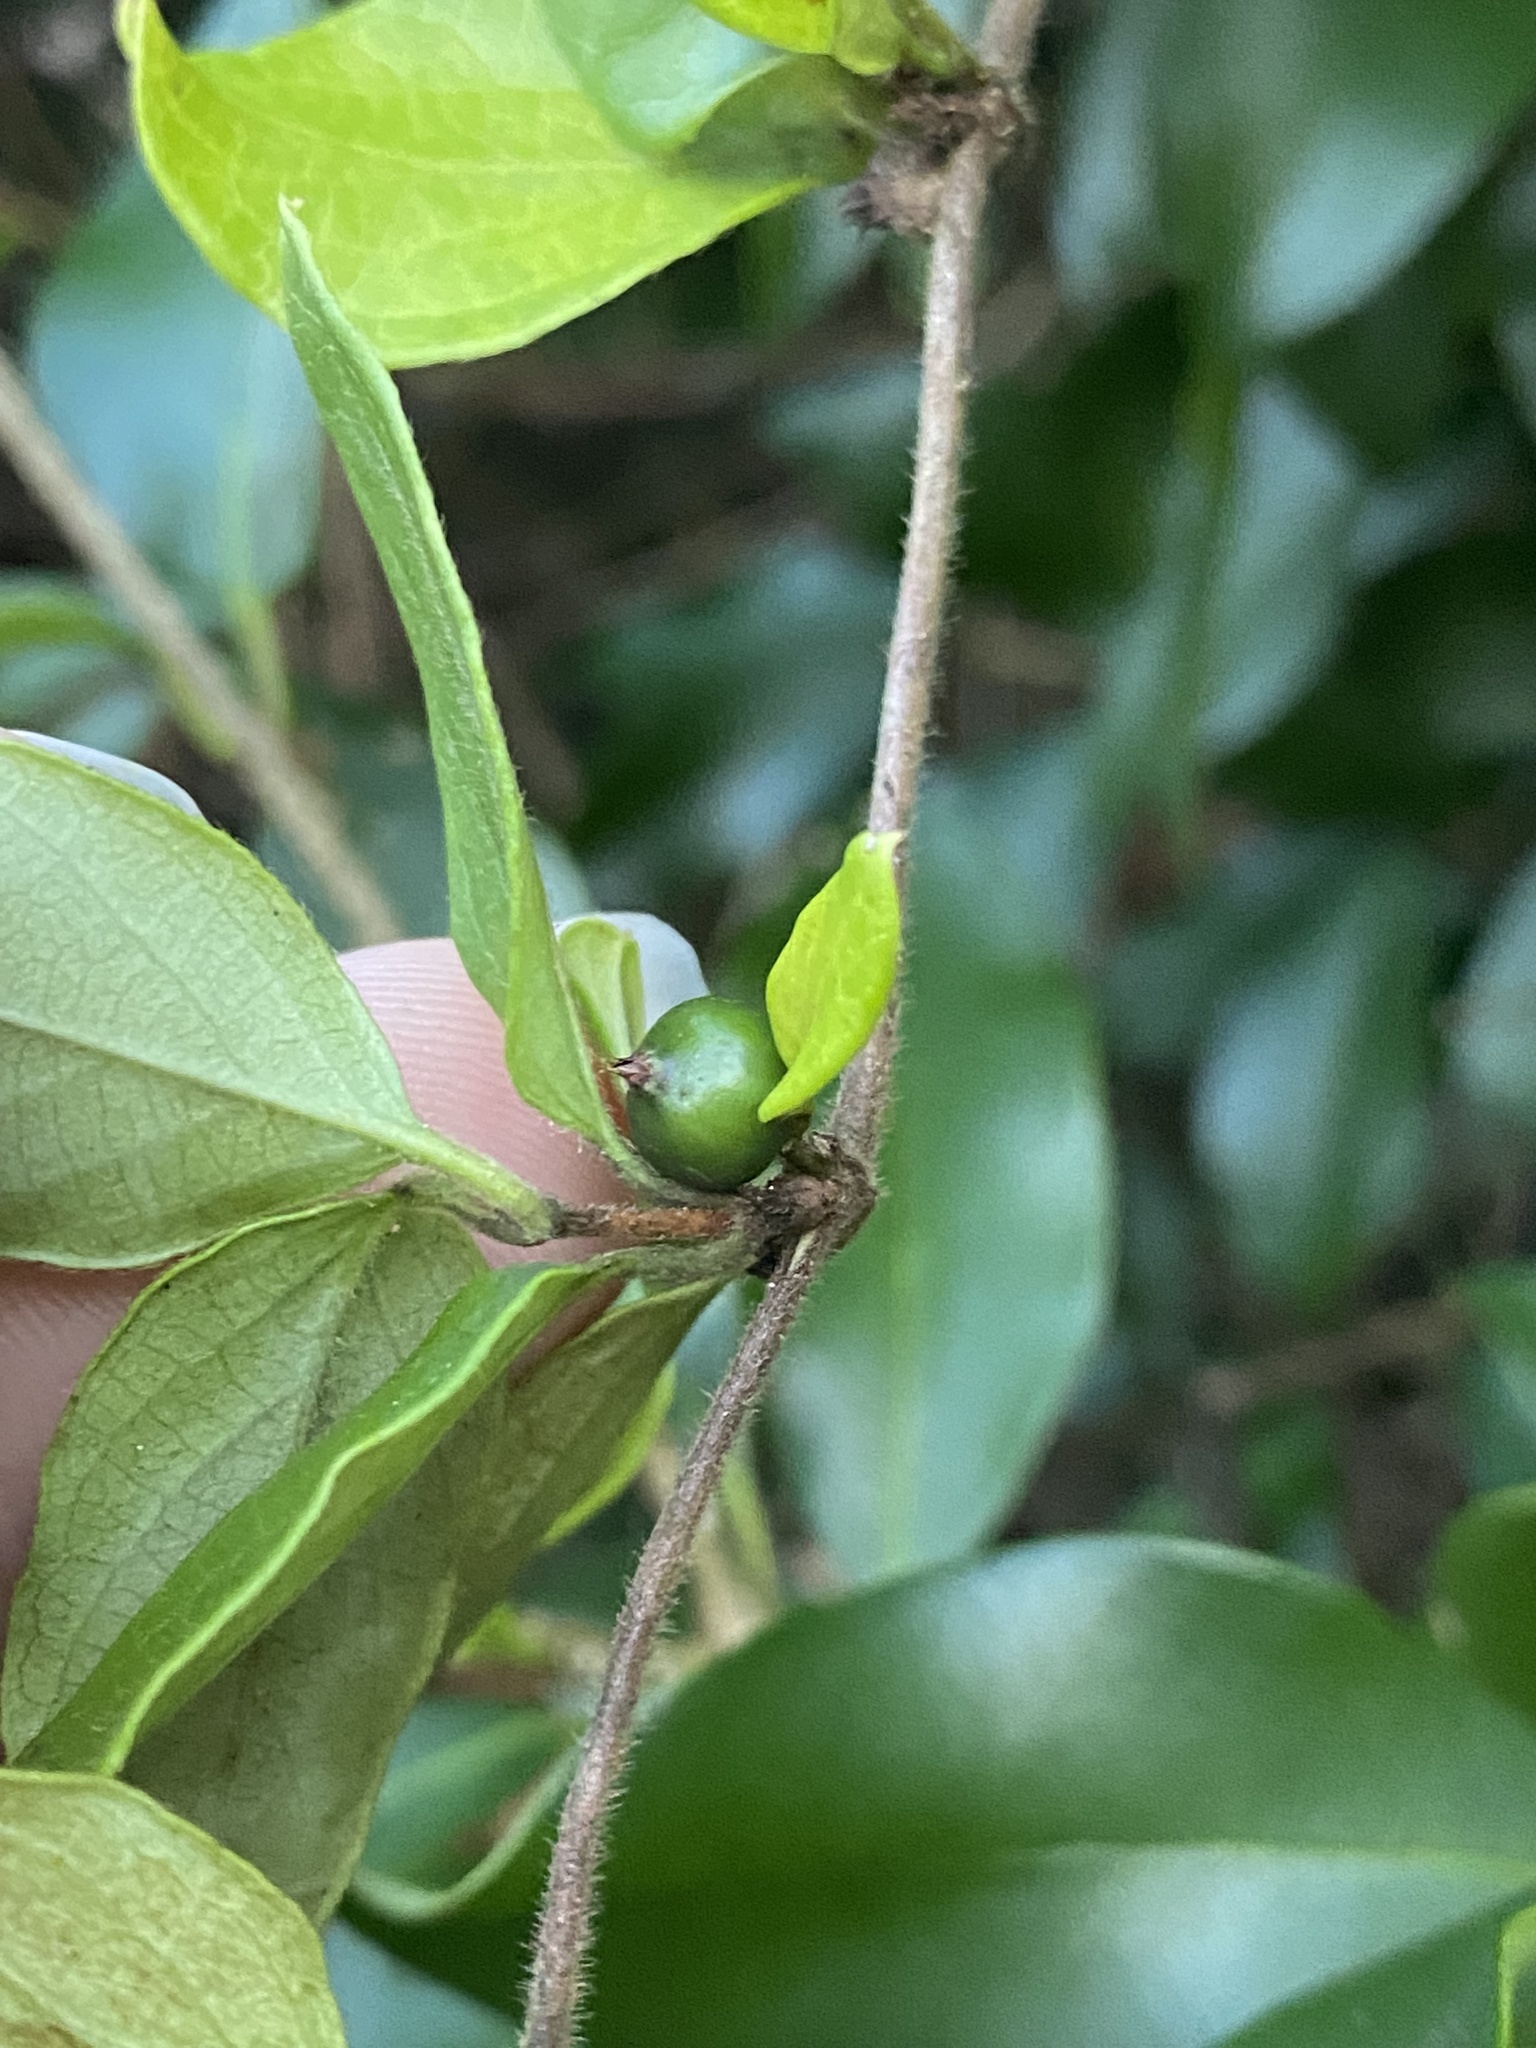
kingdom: Plantae
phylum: Tracheophyta
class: Magnoliopsida
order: Dipsacales
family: Caprifoliaceae
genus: Lonicera
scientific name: Lonicera japonica
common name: Japanese honeysuckle
